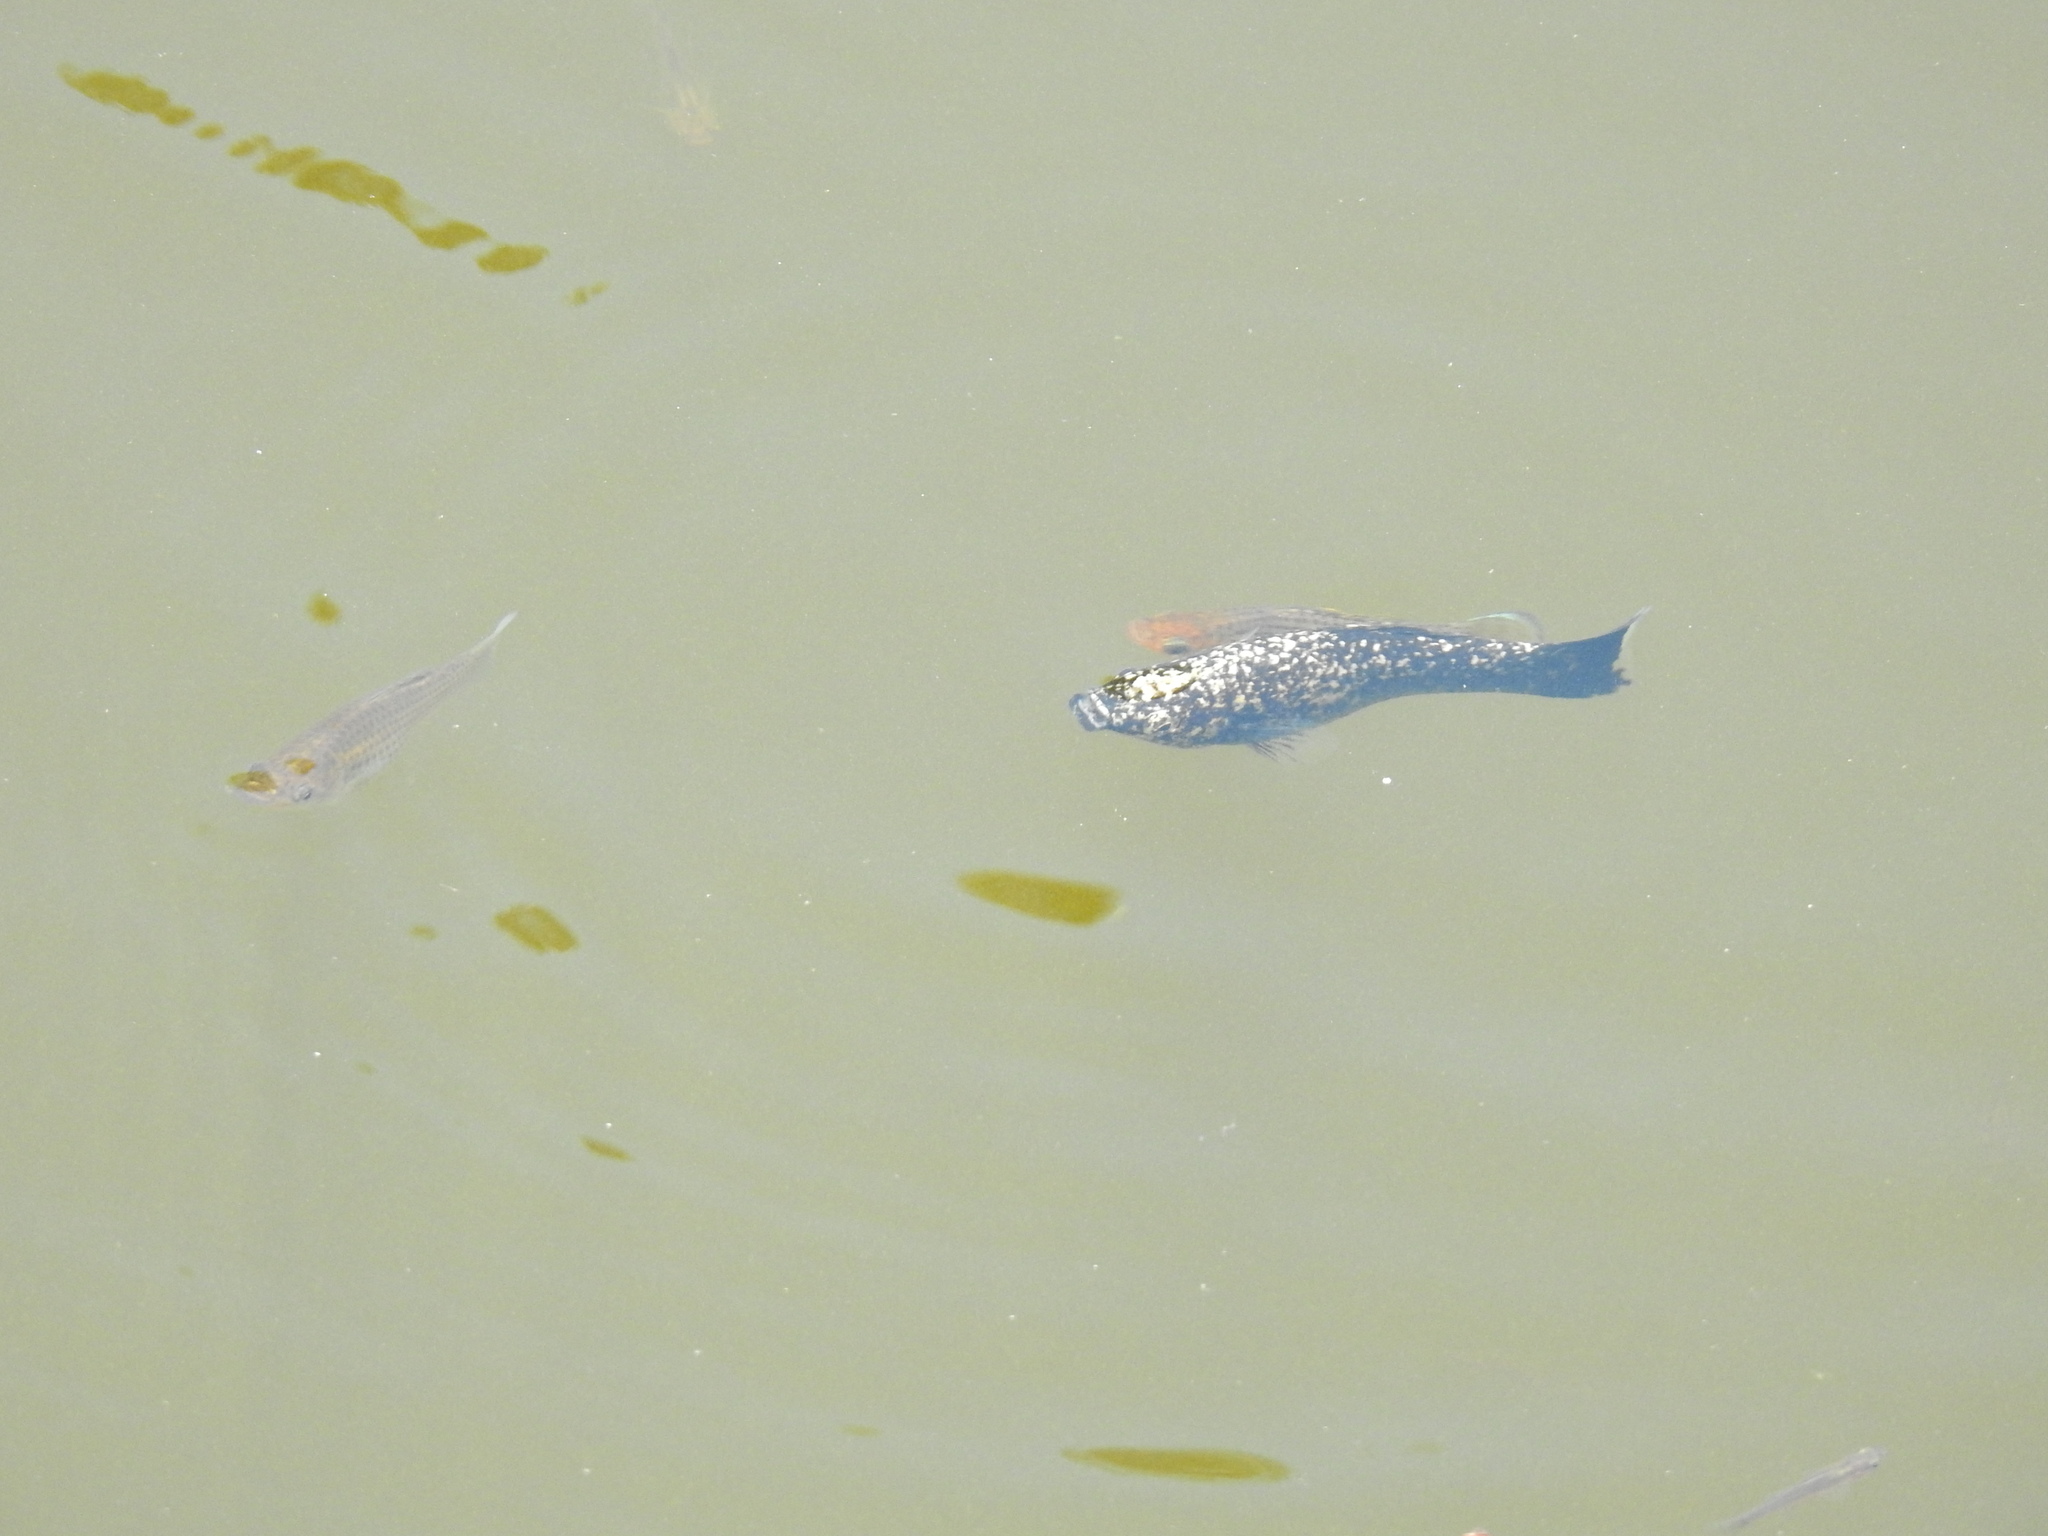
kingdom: Animalia
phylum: Chordata
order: Cyprinodontiformes
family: Poeciliidae
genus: Poecilia
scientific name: Poecilia latipinna
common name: Sailfin molly
